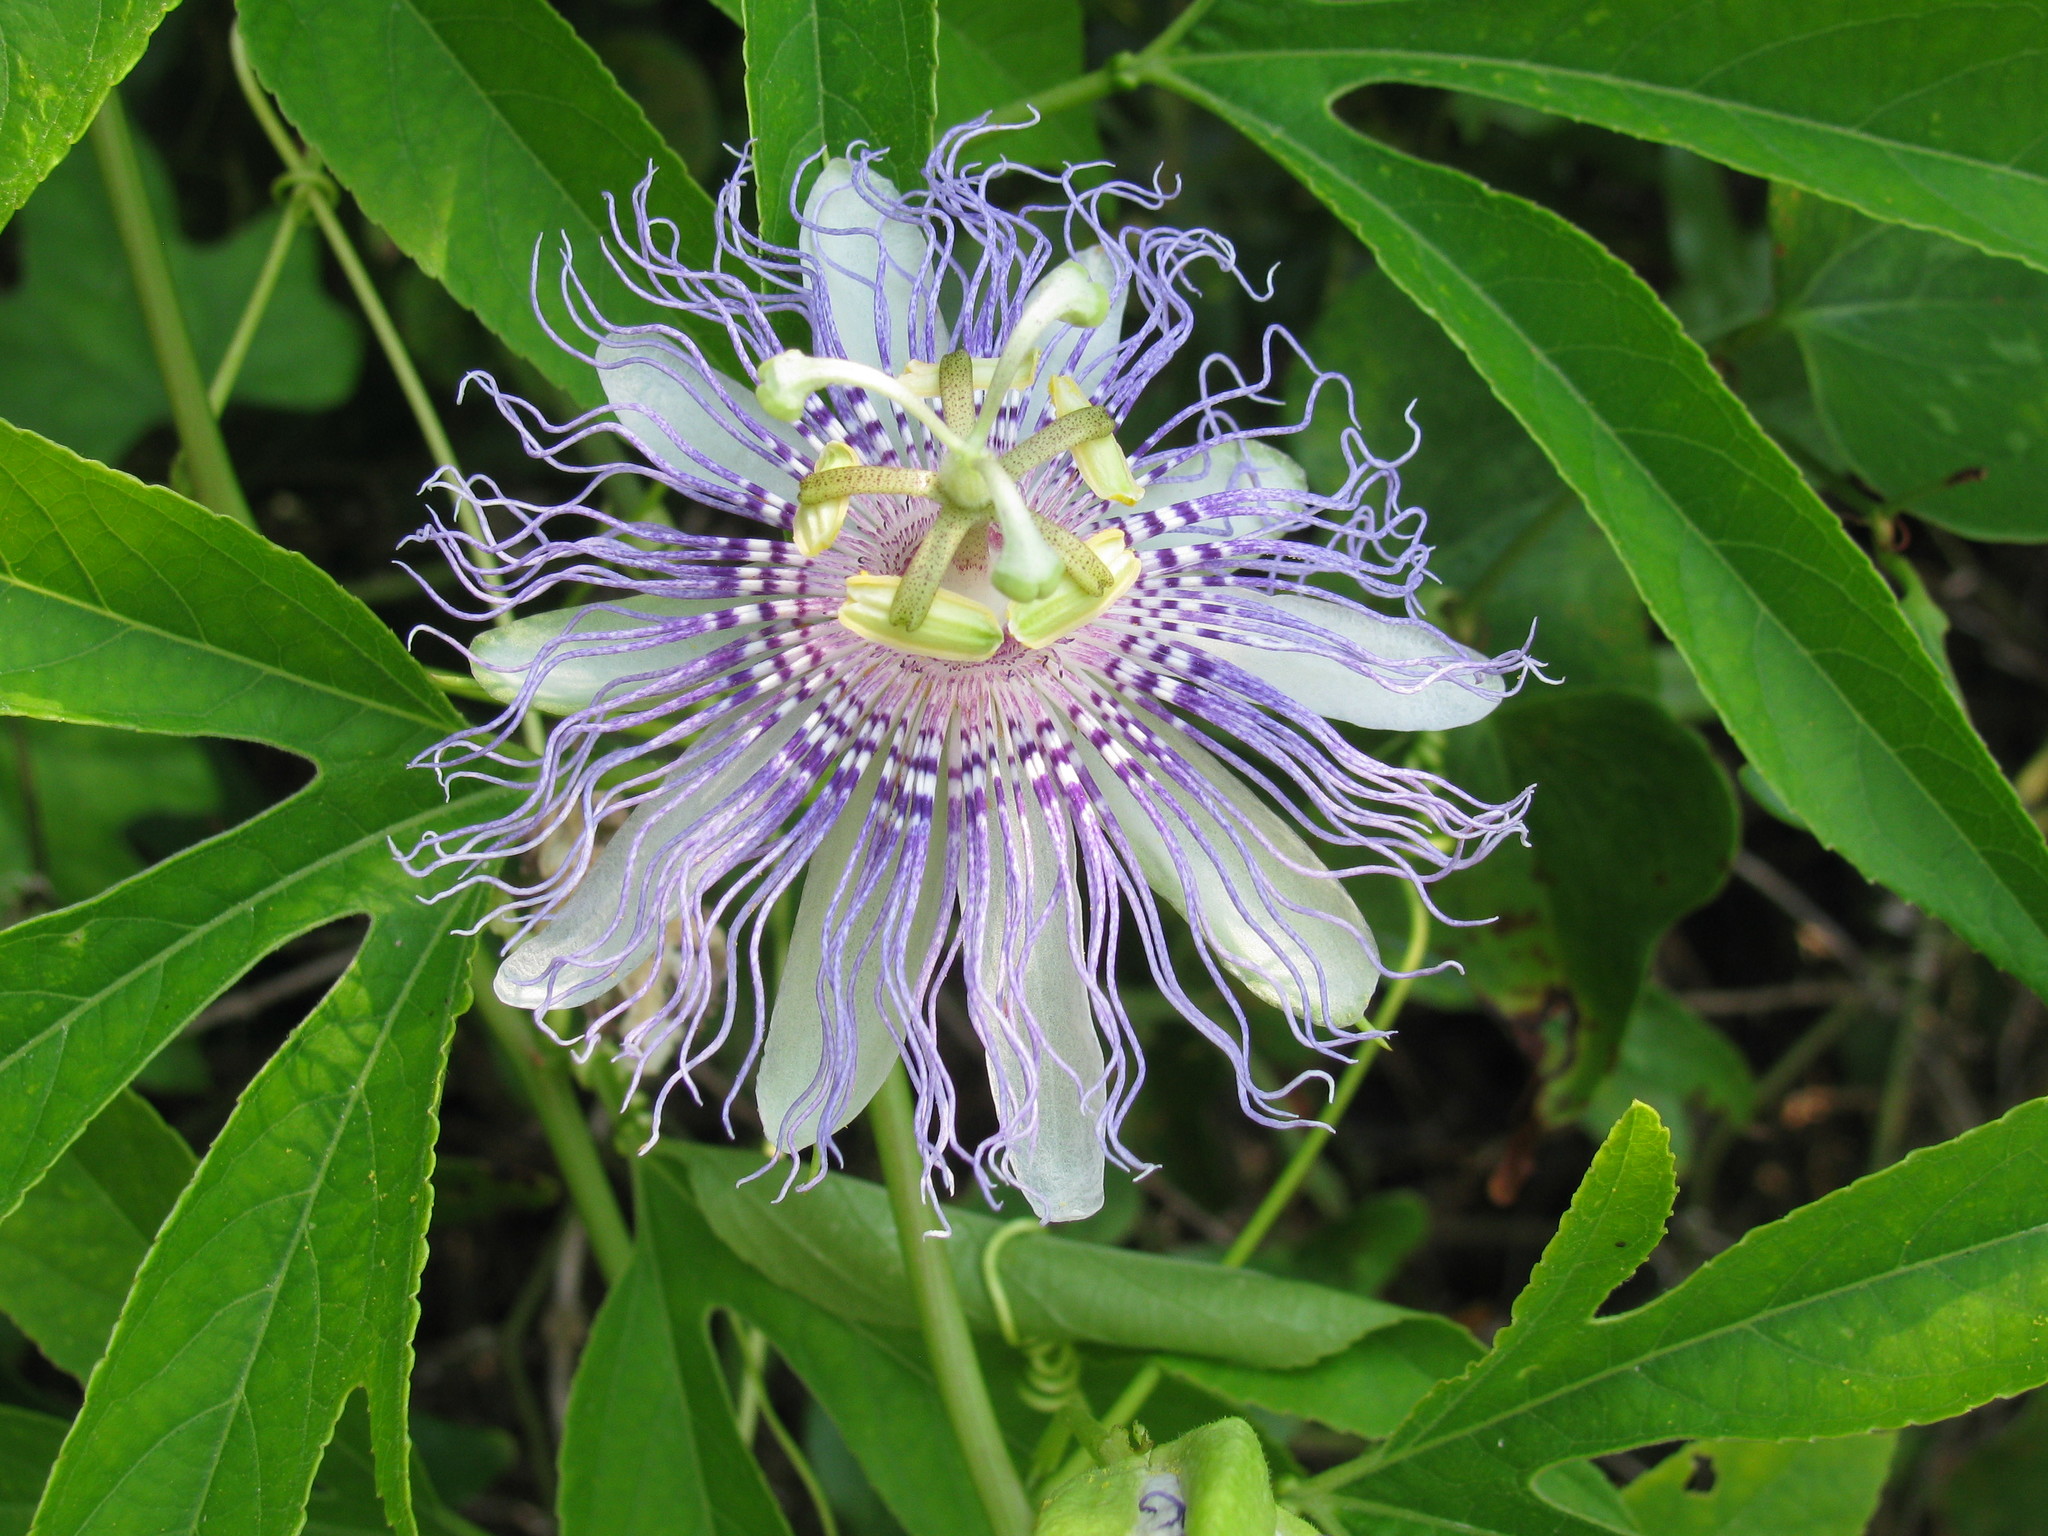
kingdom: Plantae
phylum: Tracheophyta
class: Magnoliopsida
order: Malpighiales
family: Passifloraceae
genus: Passiflora
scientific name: Passiflora incarnata
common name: Apricot-vine
